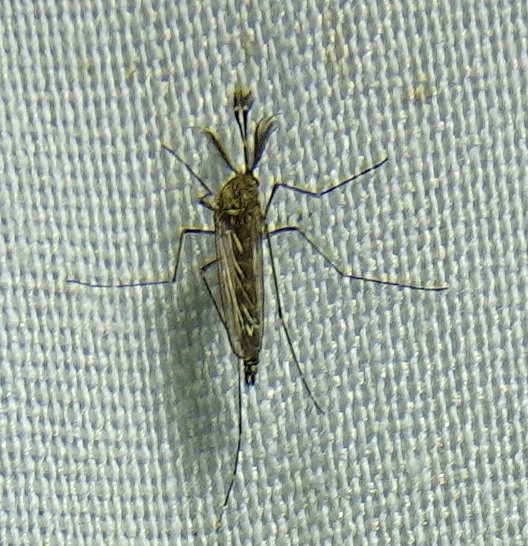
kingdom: Animalia
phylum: Arthropoda
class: Insecta
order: Diptera
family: Culicidae
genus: Aedes
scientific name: Aedes vexans
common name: Inland floodwater mosquito
